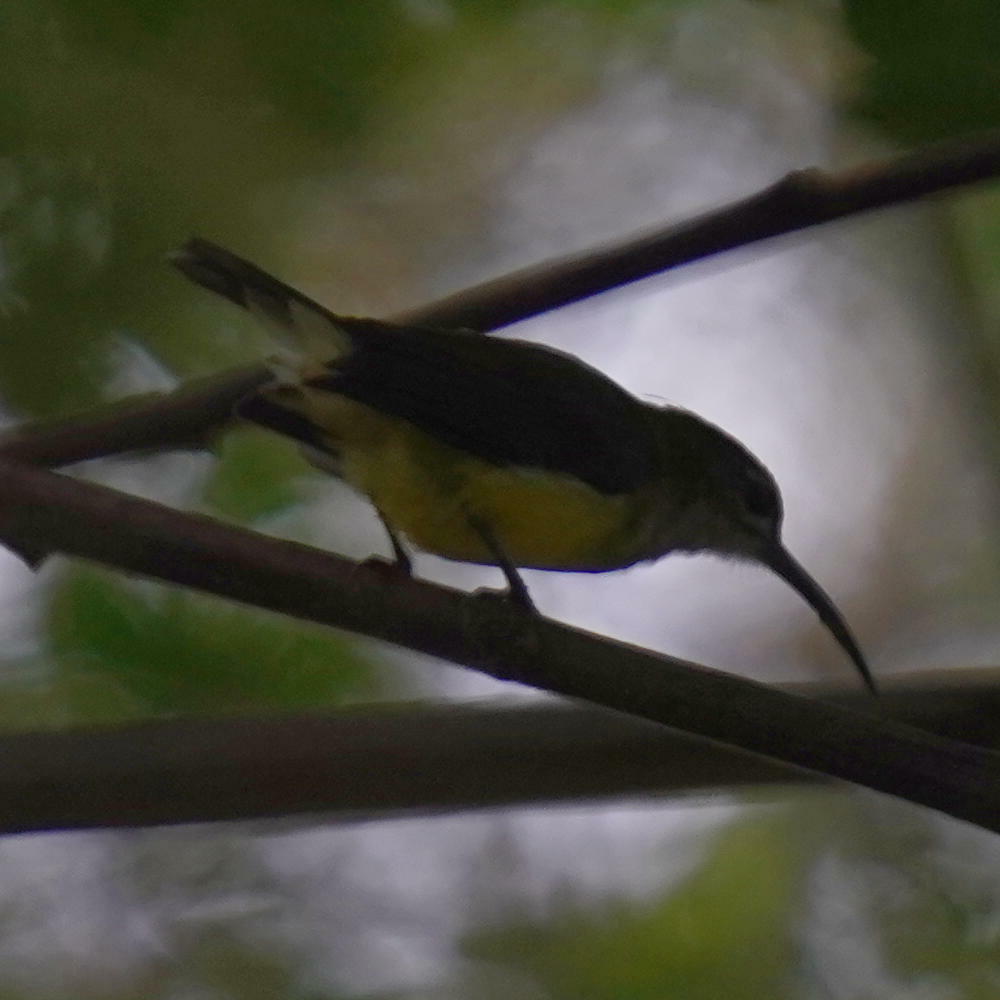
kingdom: Animalia
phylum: Chordata
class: Aves
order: Passeriformes
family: Nectariniidae
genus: Arachnothera
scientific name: Arachnothera longirostra
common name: Little spiderhunter
